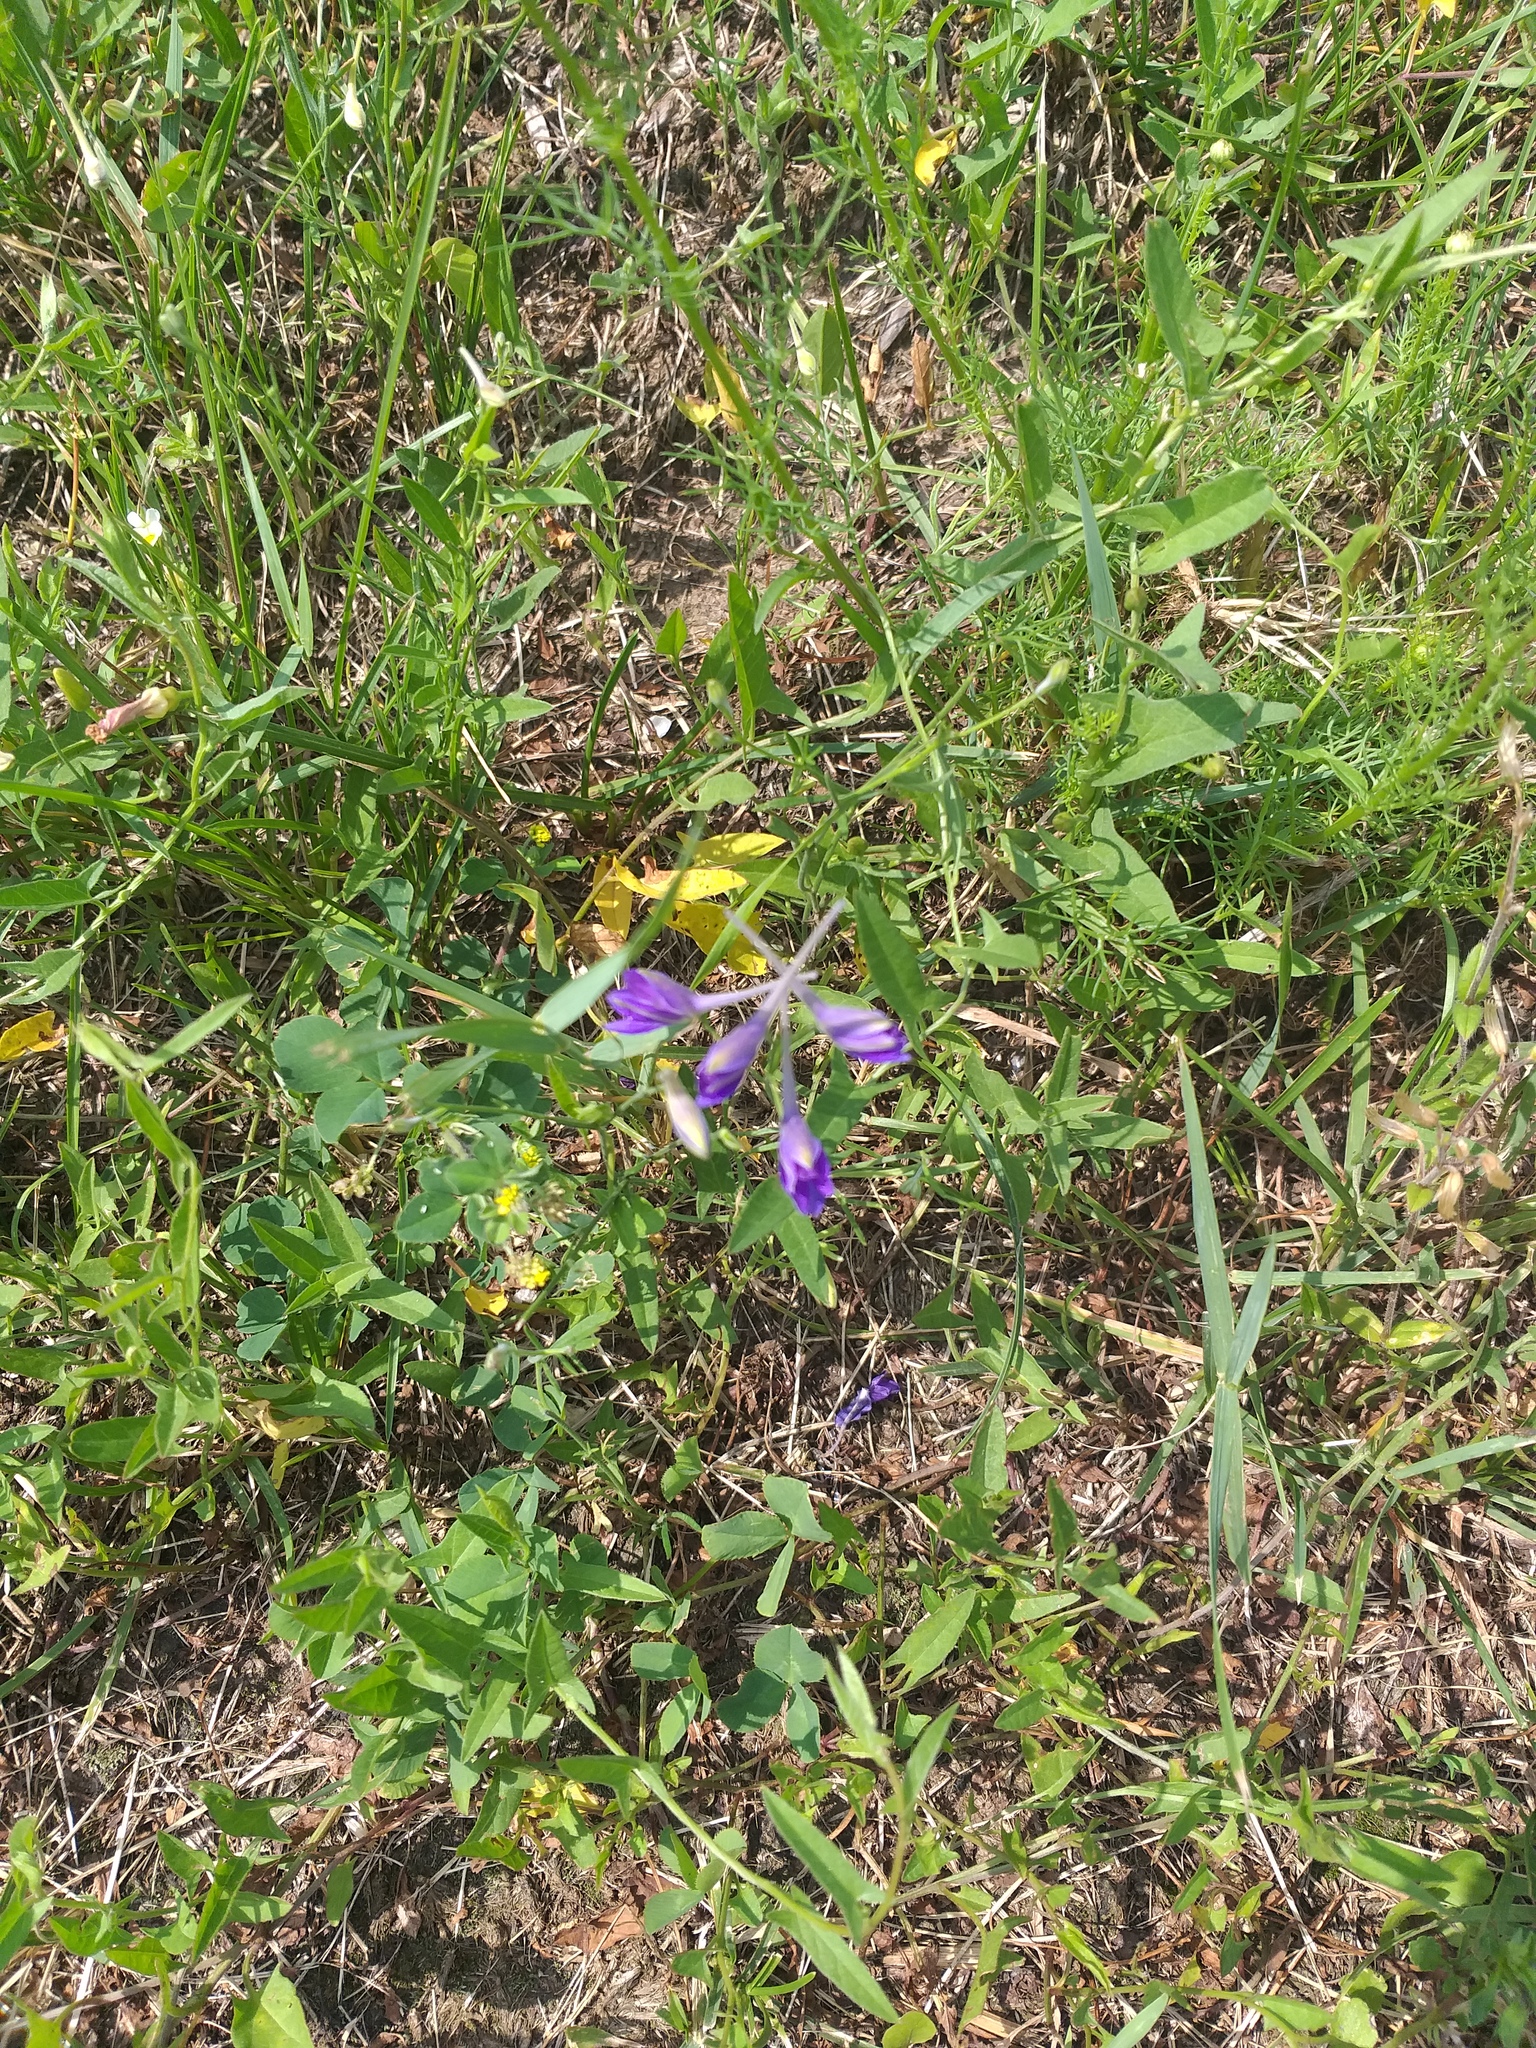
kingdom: Plantae
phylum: Tracheophyta
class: Magnoliopsida
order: Ranunculales
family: Ranunculaceae
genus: Delphinium
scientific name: Delphinium consolida
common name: Branching larkspur
